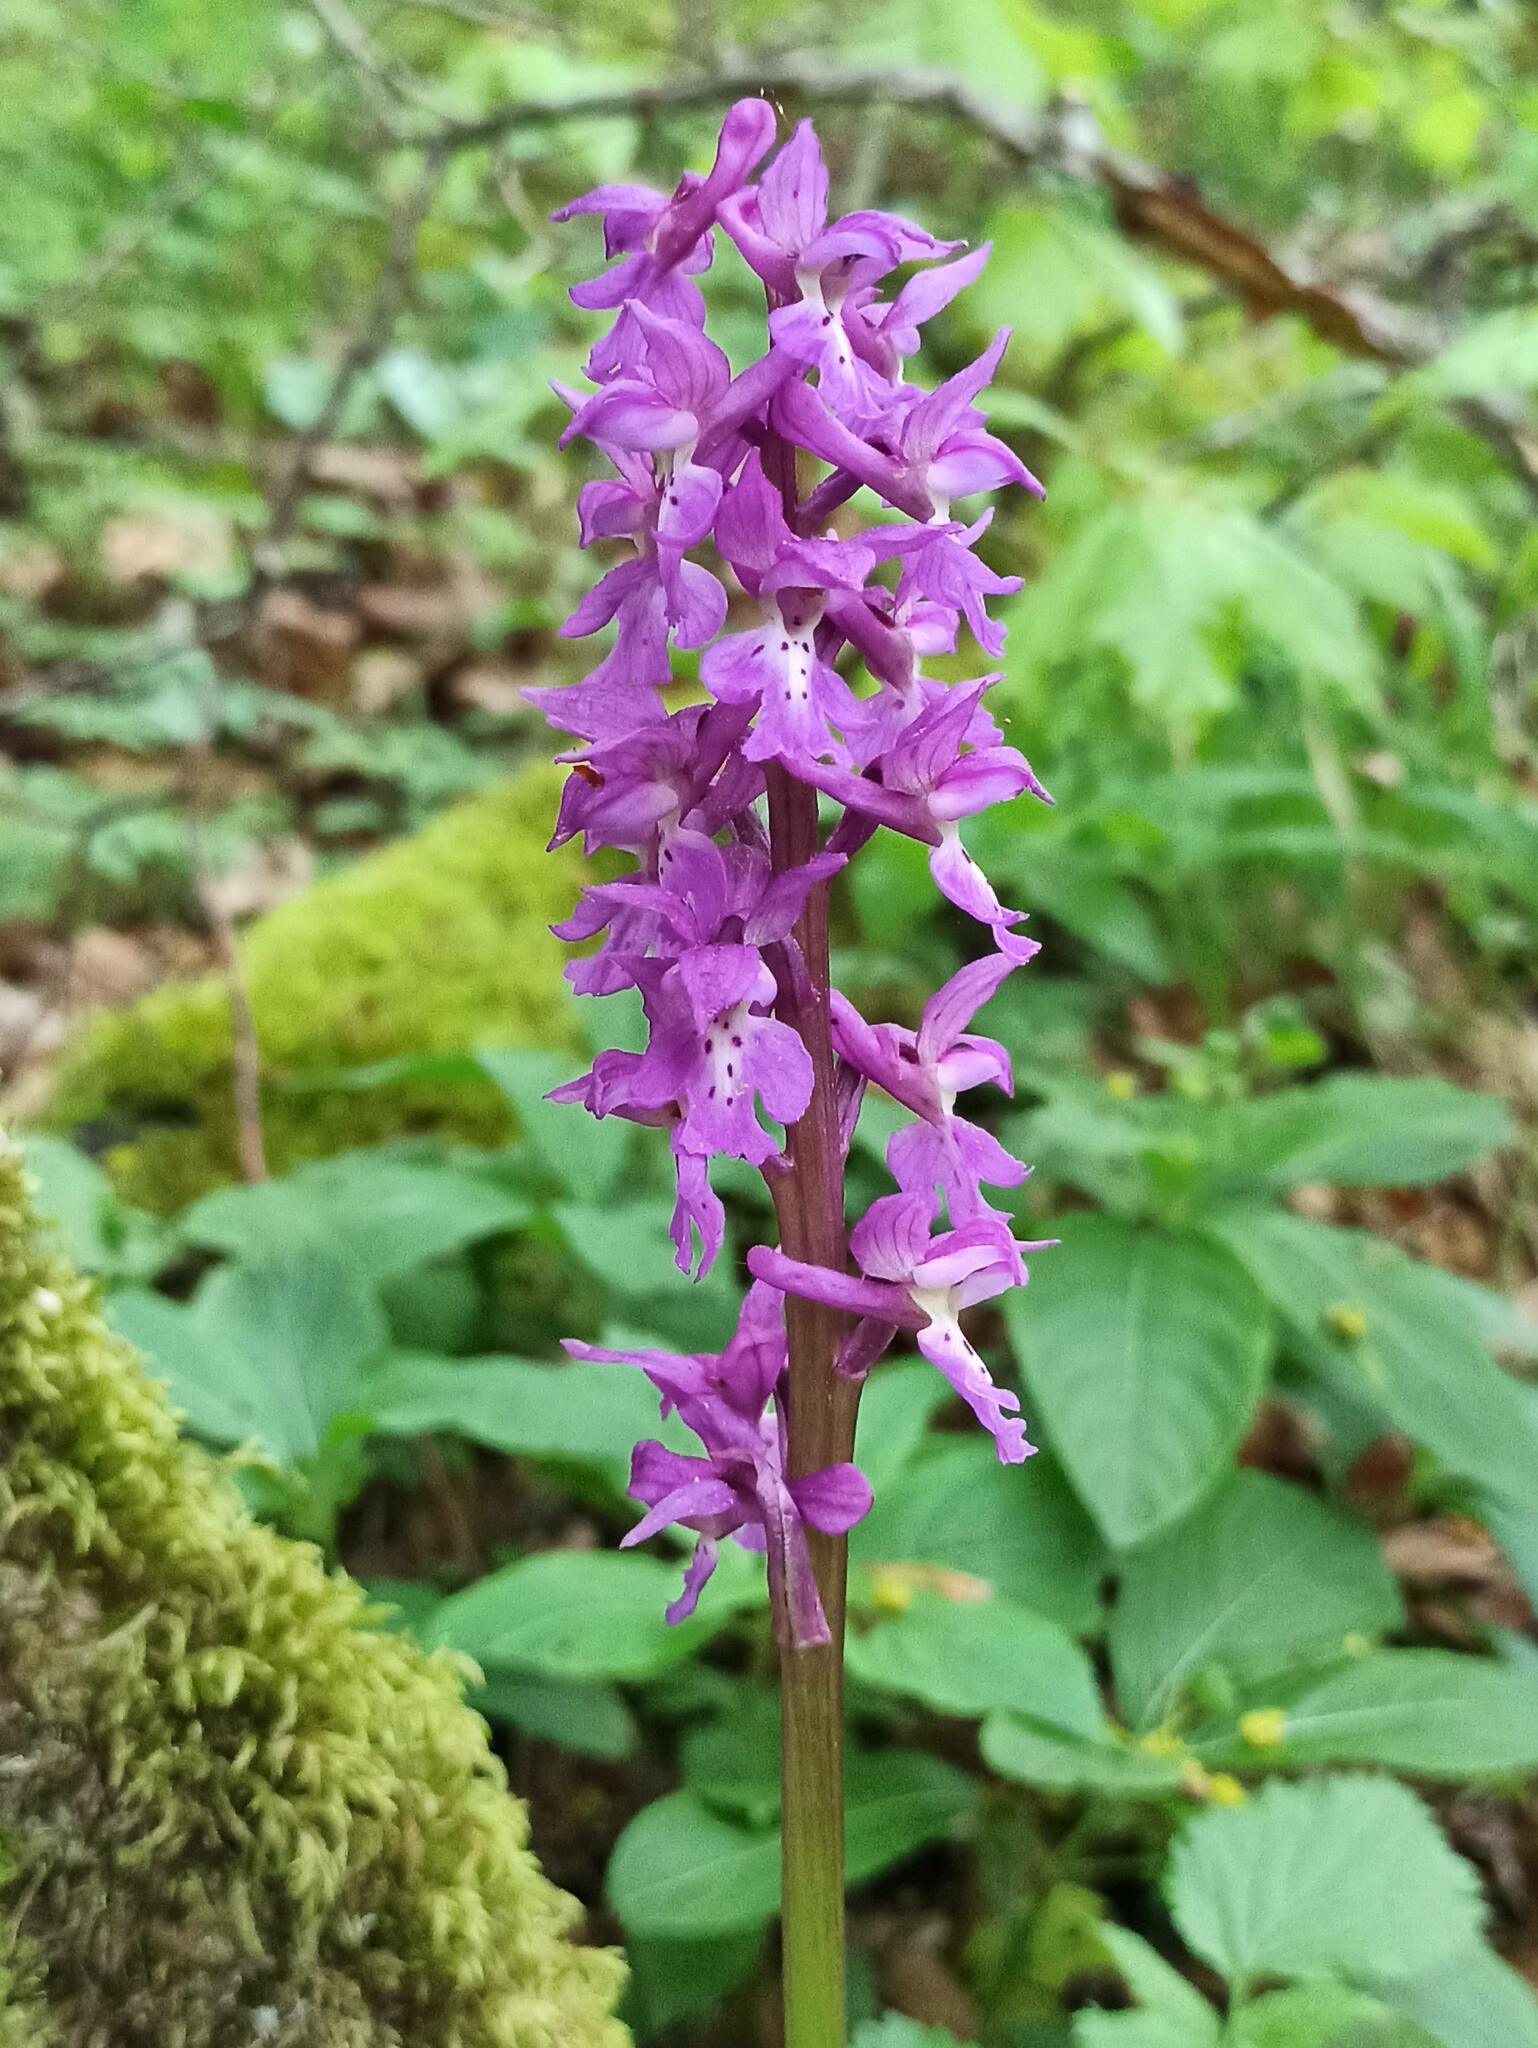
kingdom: Plantae
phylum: Tracheophyta
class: Liliopsida
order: Asparagales
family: Orchidaceae
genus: Orchis
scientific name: Orchis mascula
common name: Early-purple orchid
